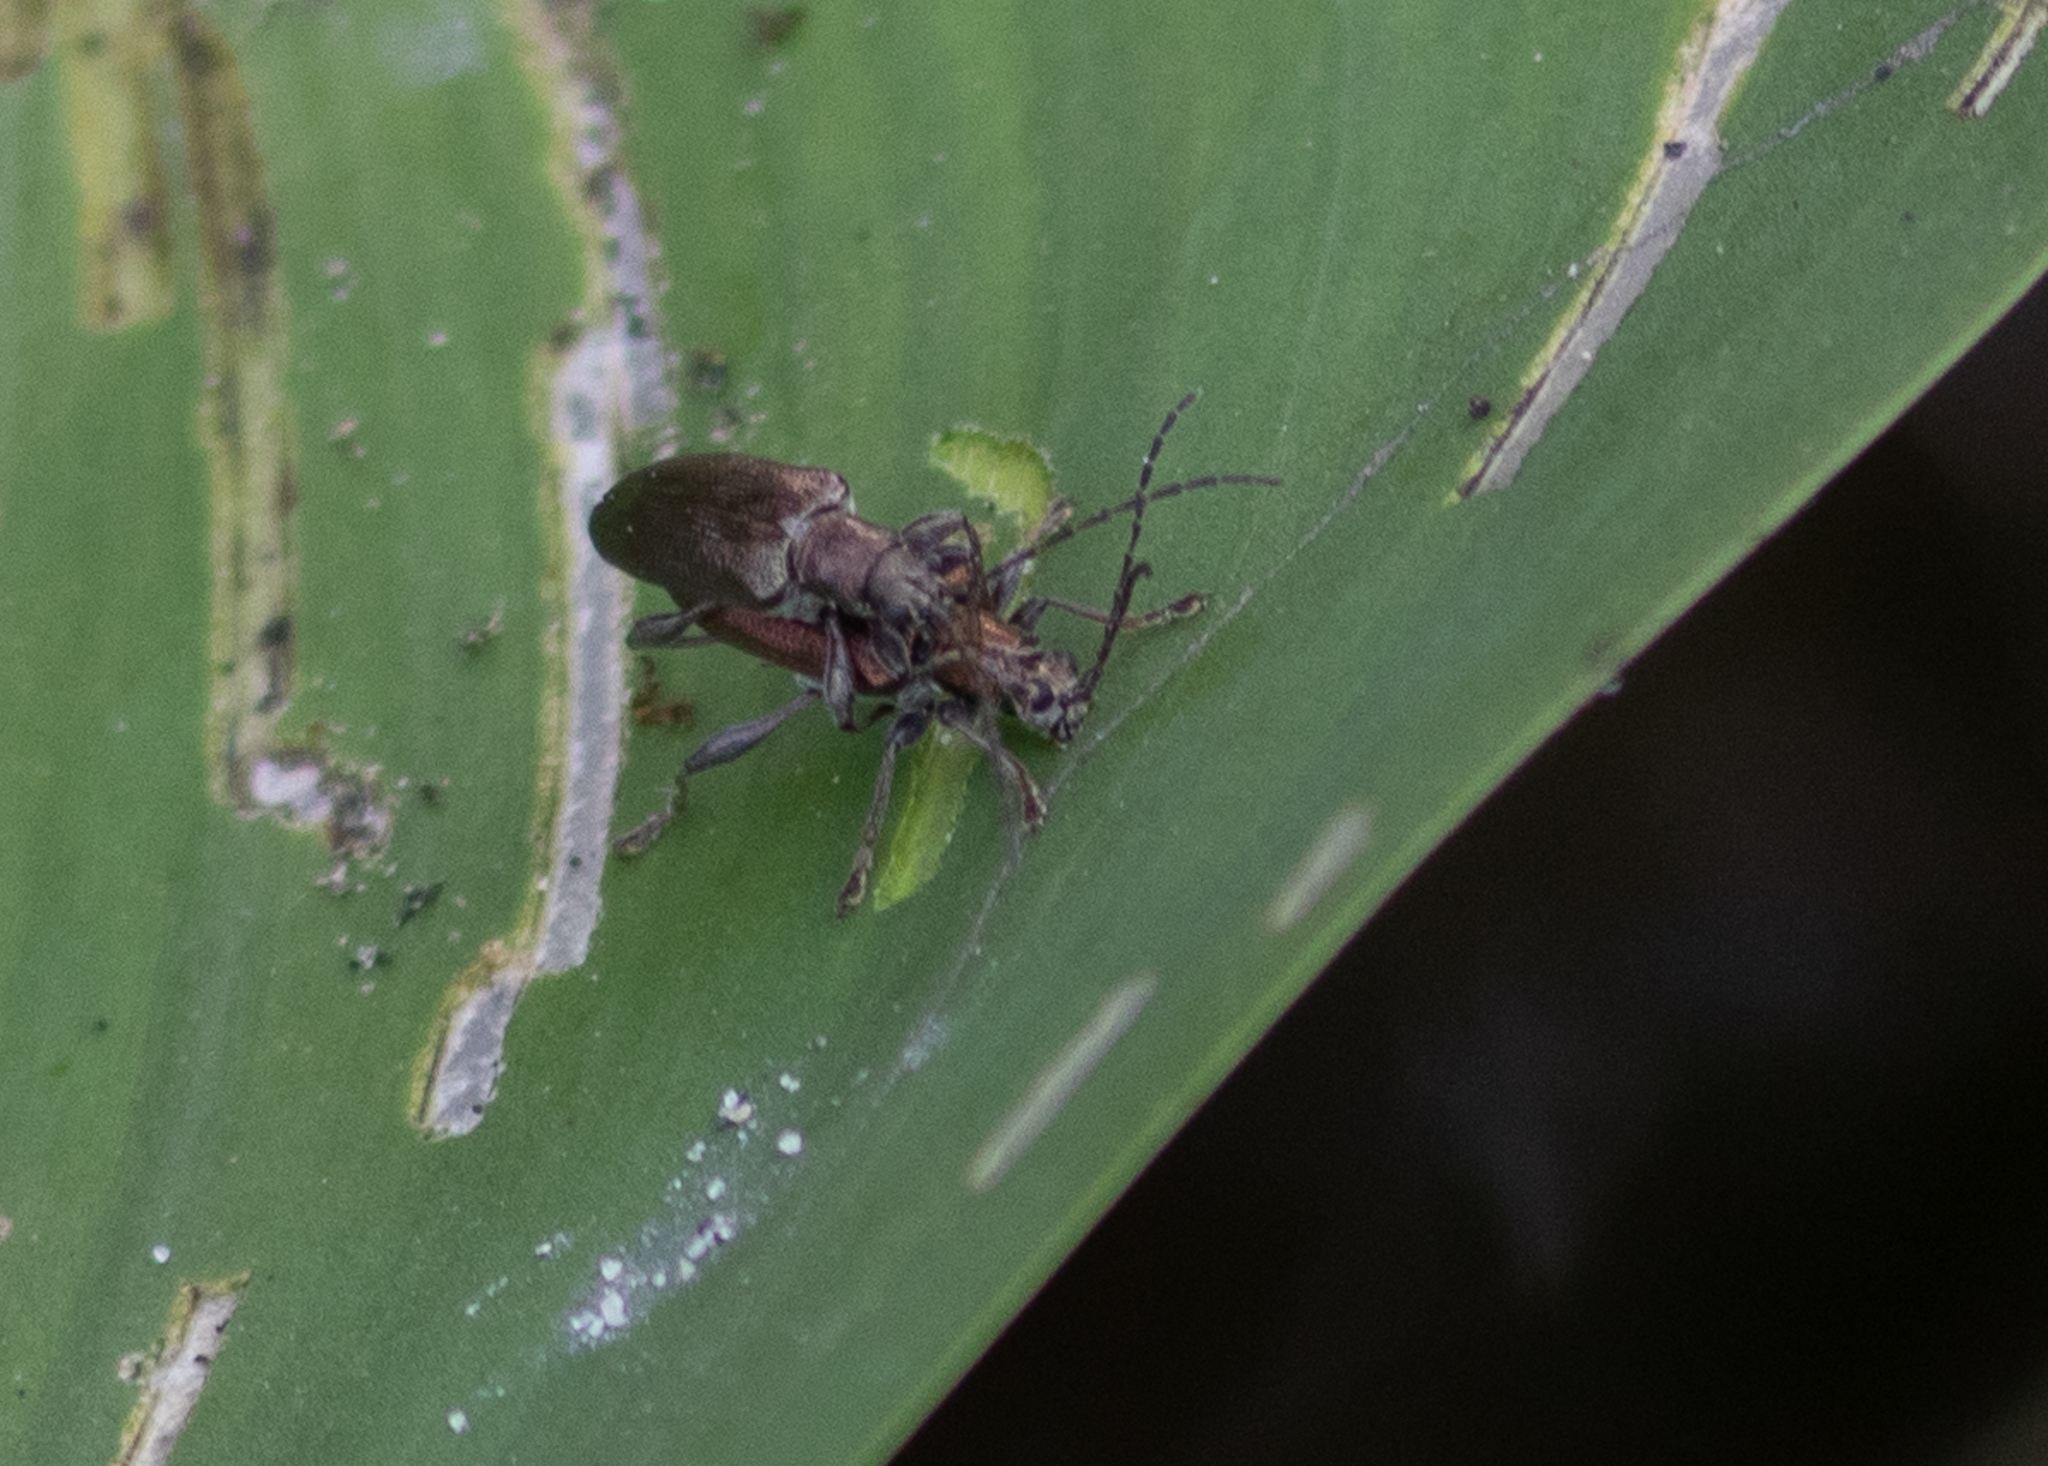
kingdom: Animalia
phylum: Arthropoda
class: Insecta
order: Coleoptera
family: Chrysomelidae
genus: Donacia
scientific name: Donacia
